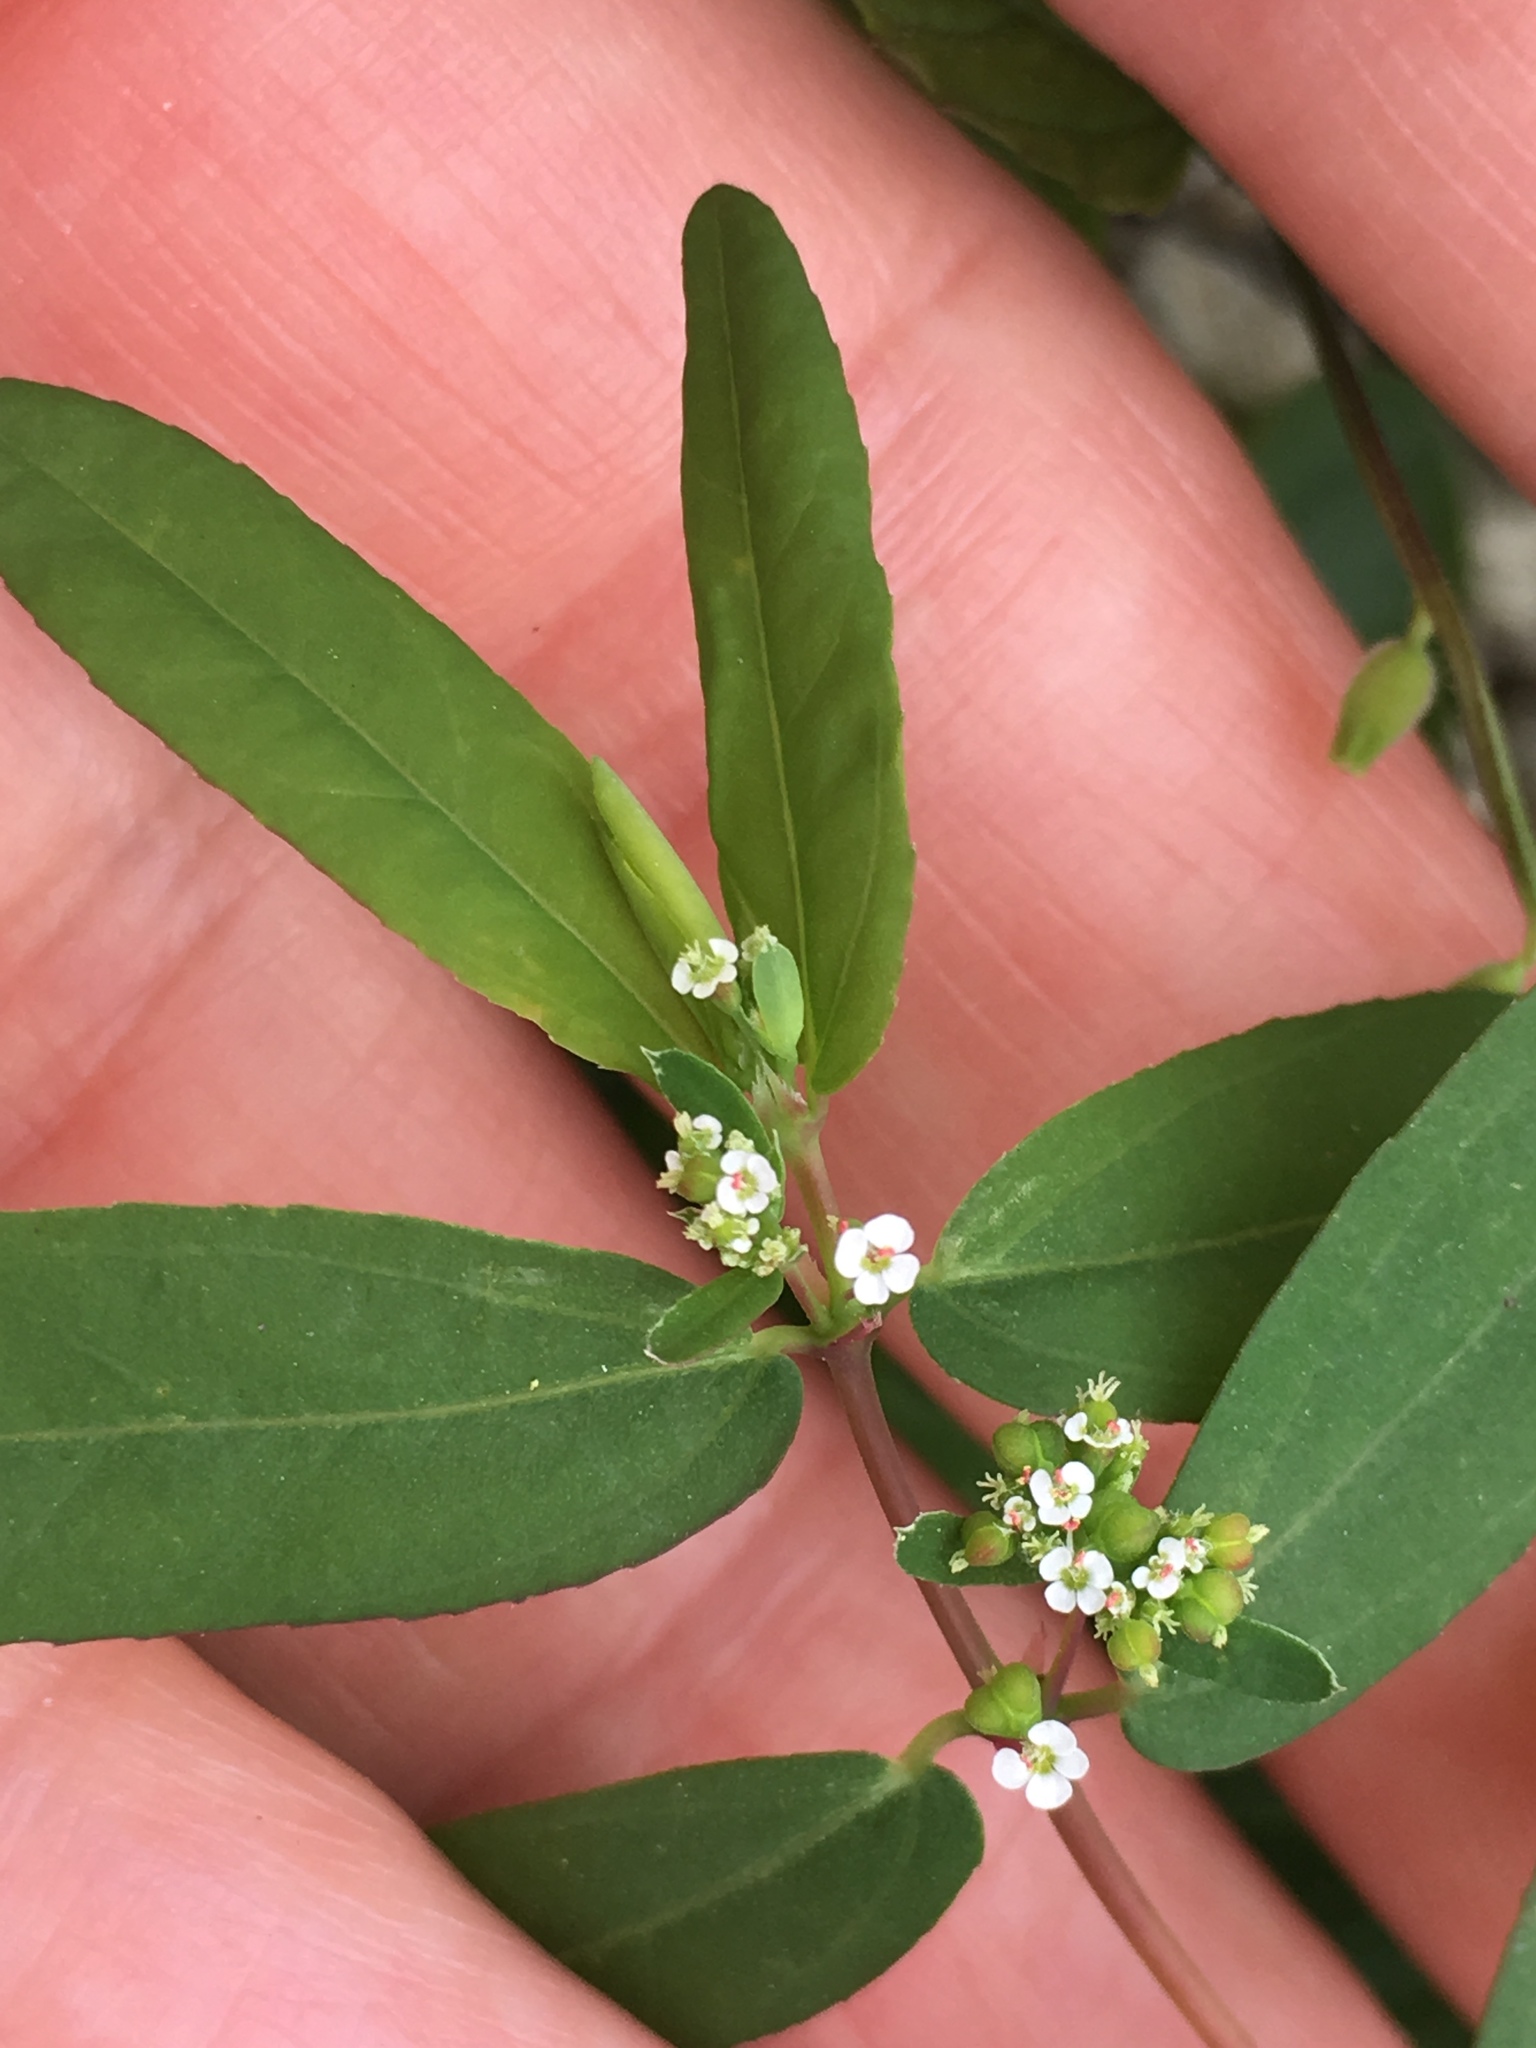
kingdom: Plantae
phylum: Tracheophyta
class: Magnoliopsida
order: Malpighiales
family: Euphorbiaceae
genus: Euphorbia
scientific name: Euphorbia hypericifolia
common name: Graceful sandmat
